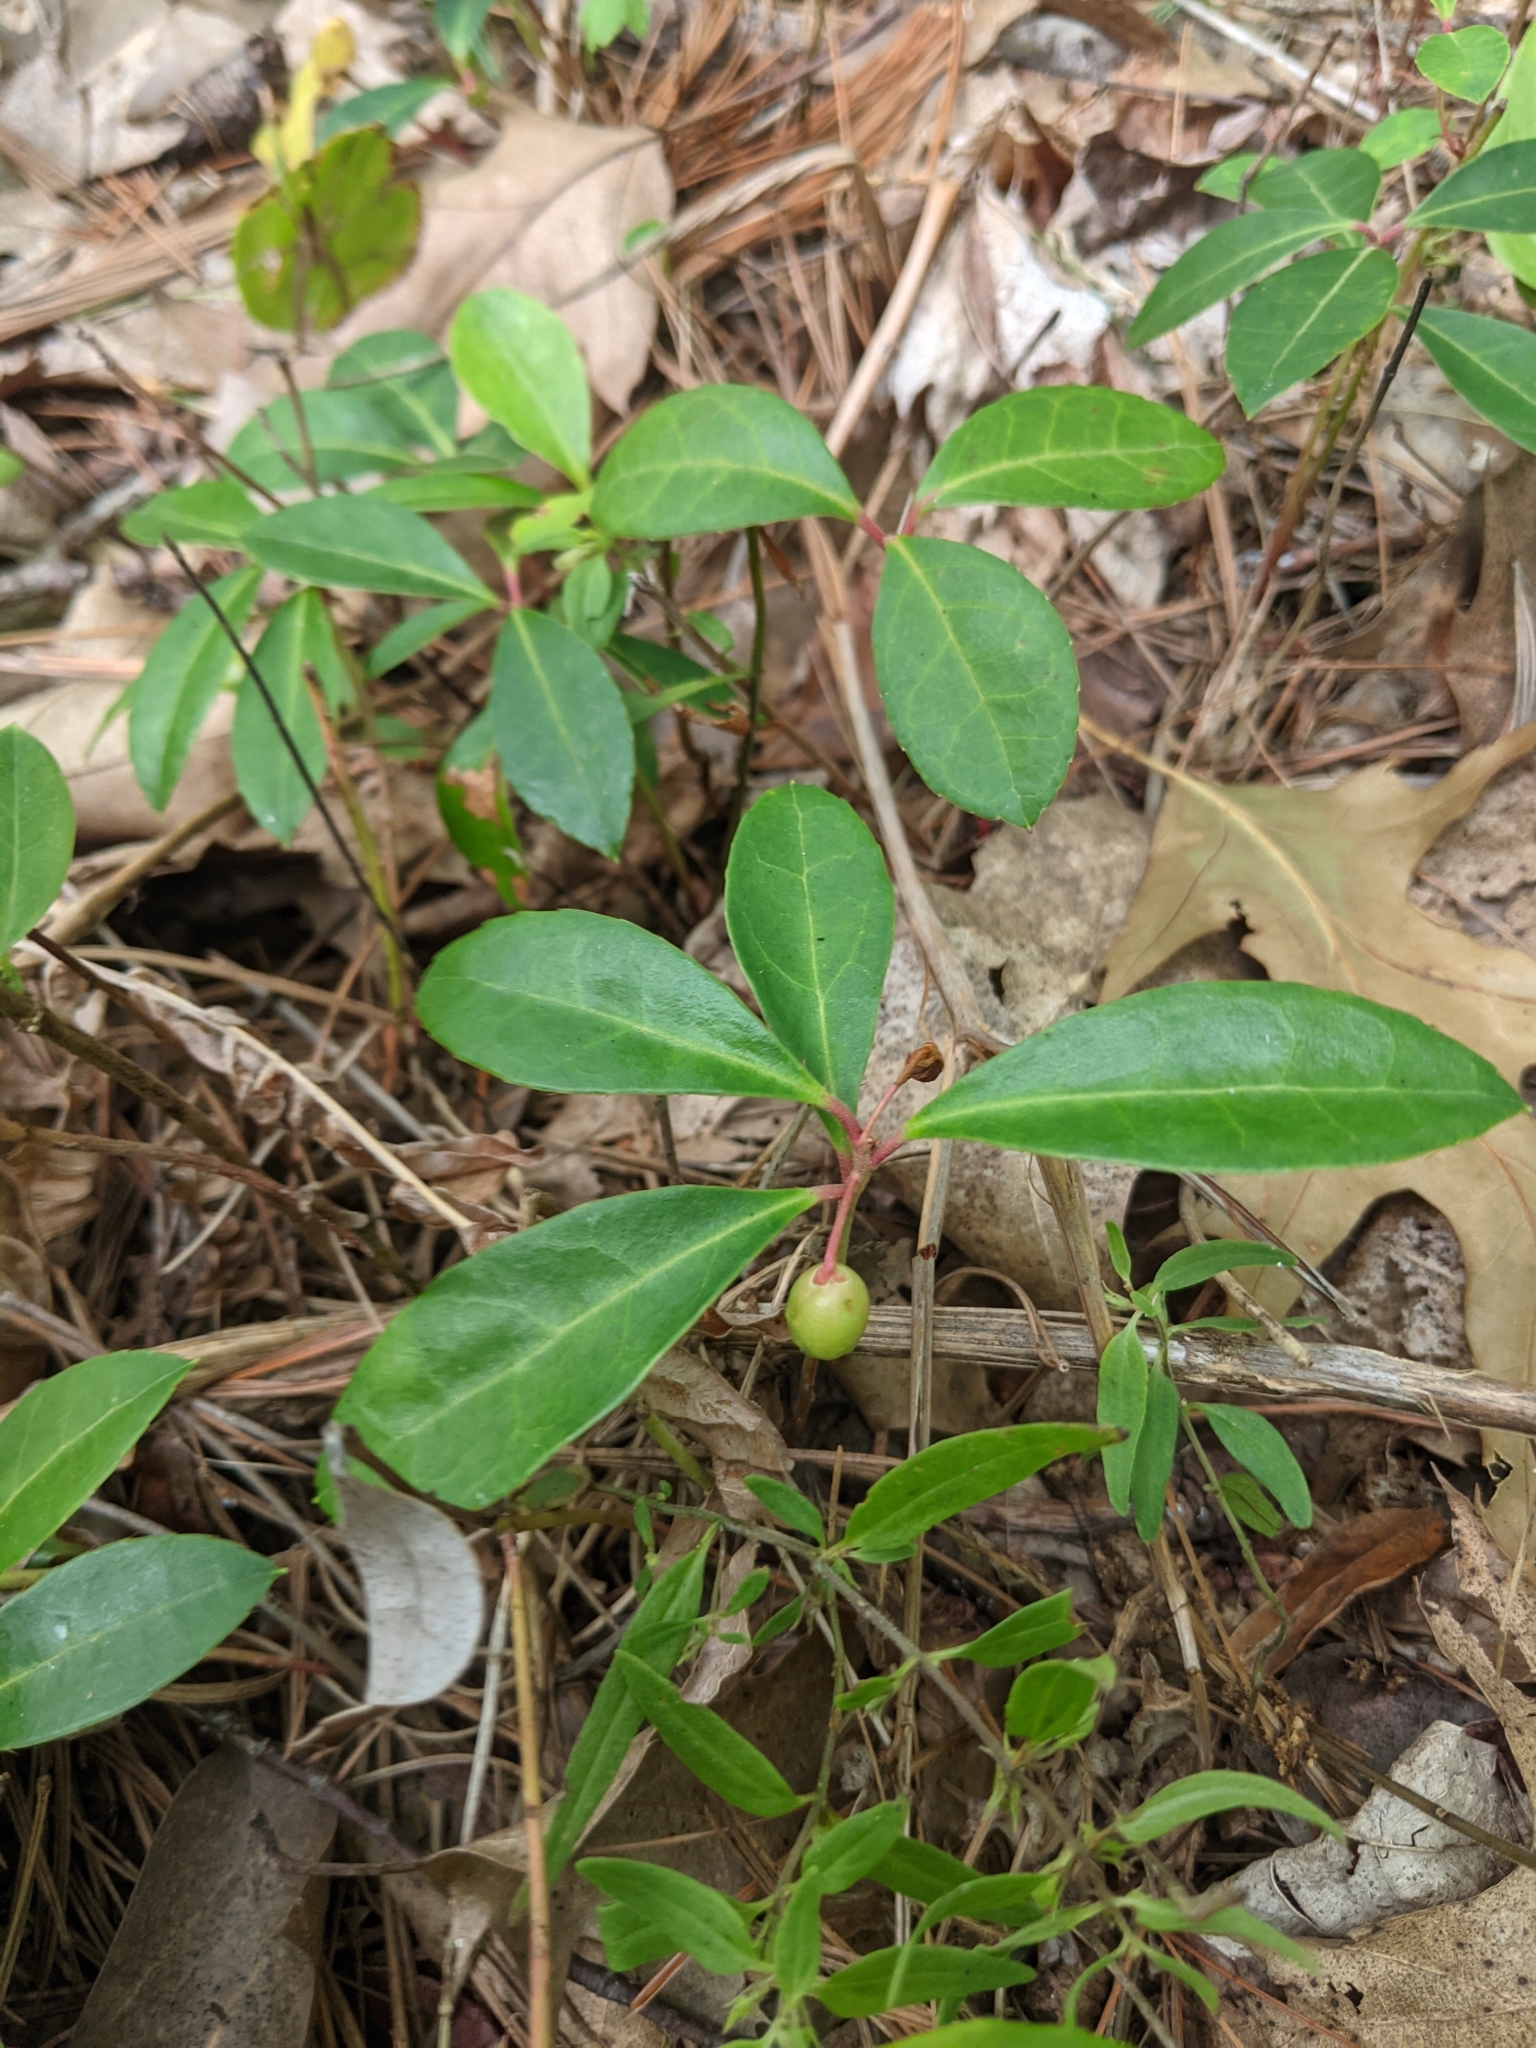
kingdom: Plantae
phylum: Tracheophyta
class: Magnoliopsida
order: Ericales
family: Ericaceae
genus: Gaultheria
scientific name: Gaultheria procumbens
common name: Checkerberry
